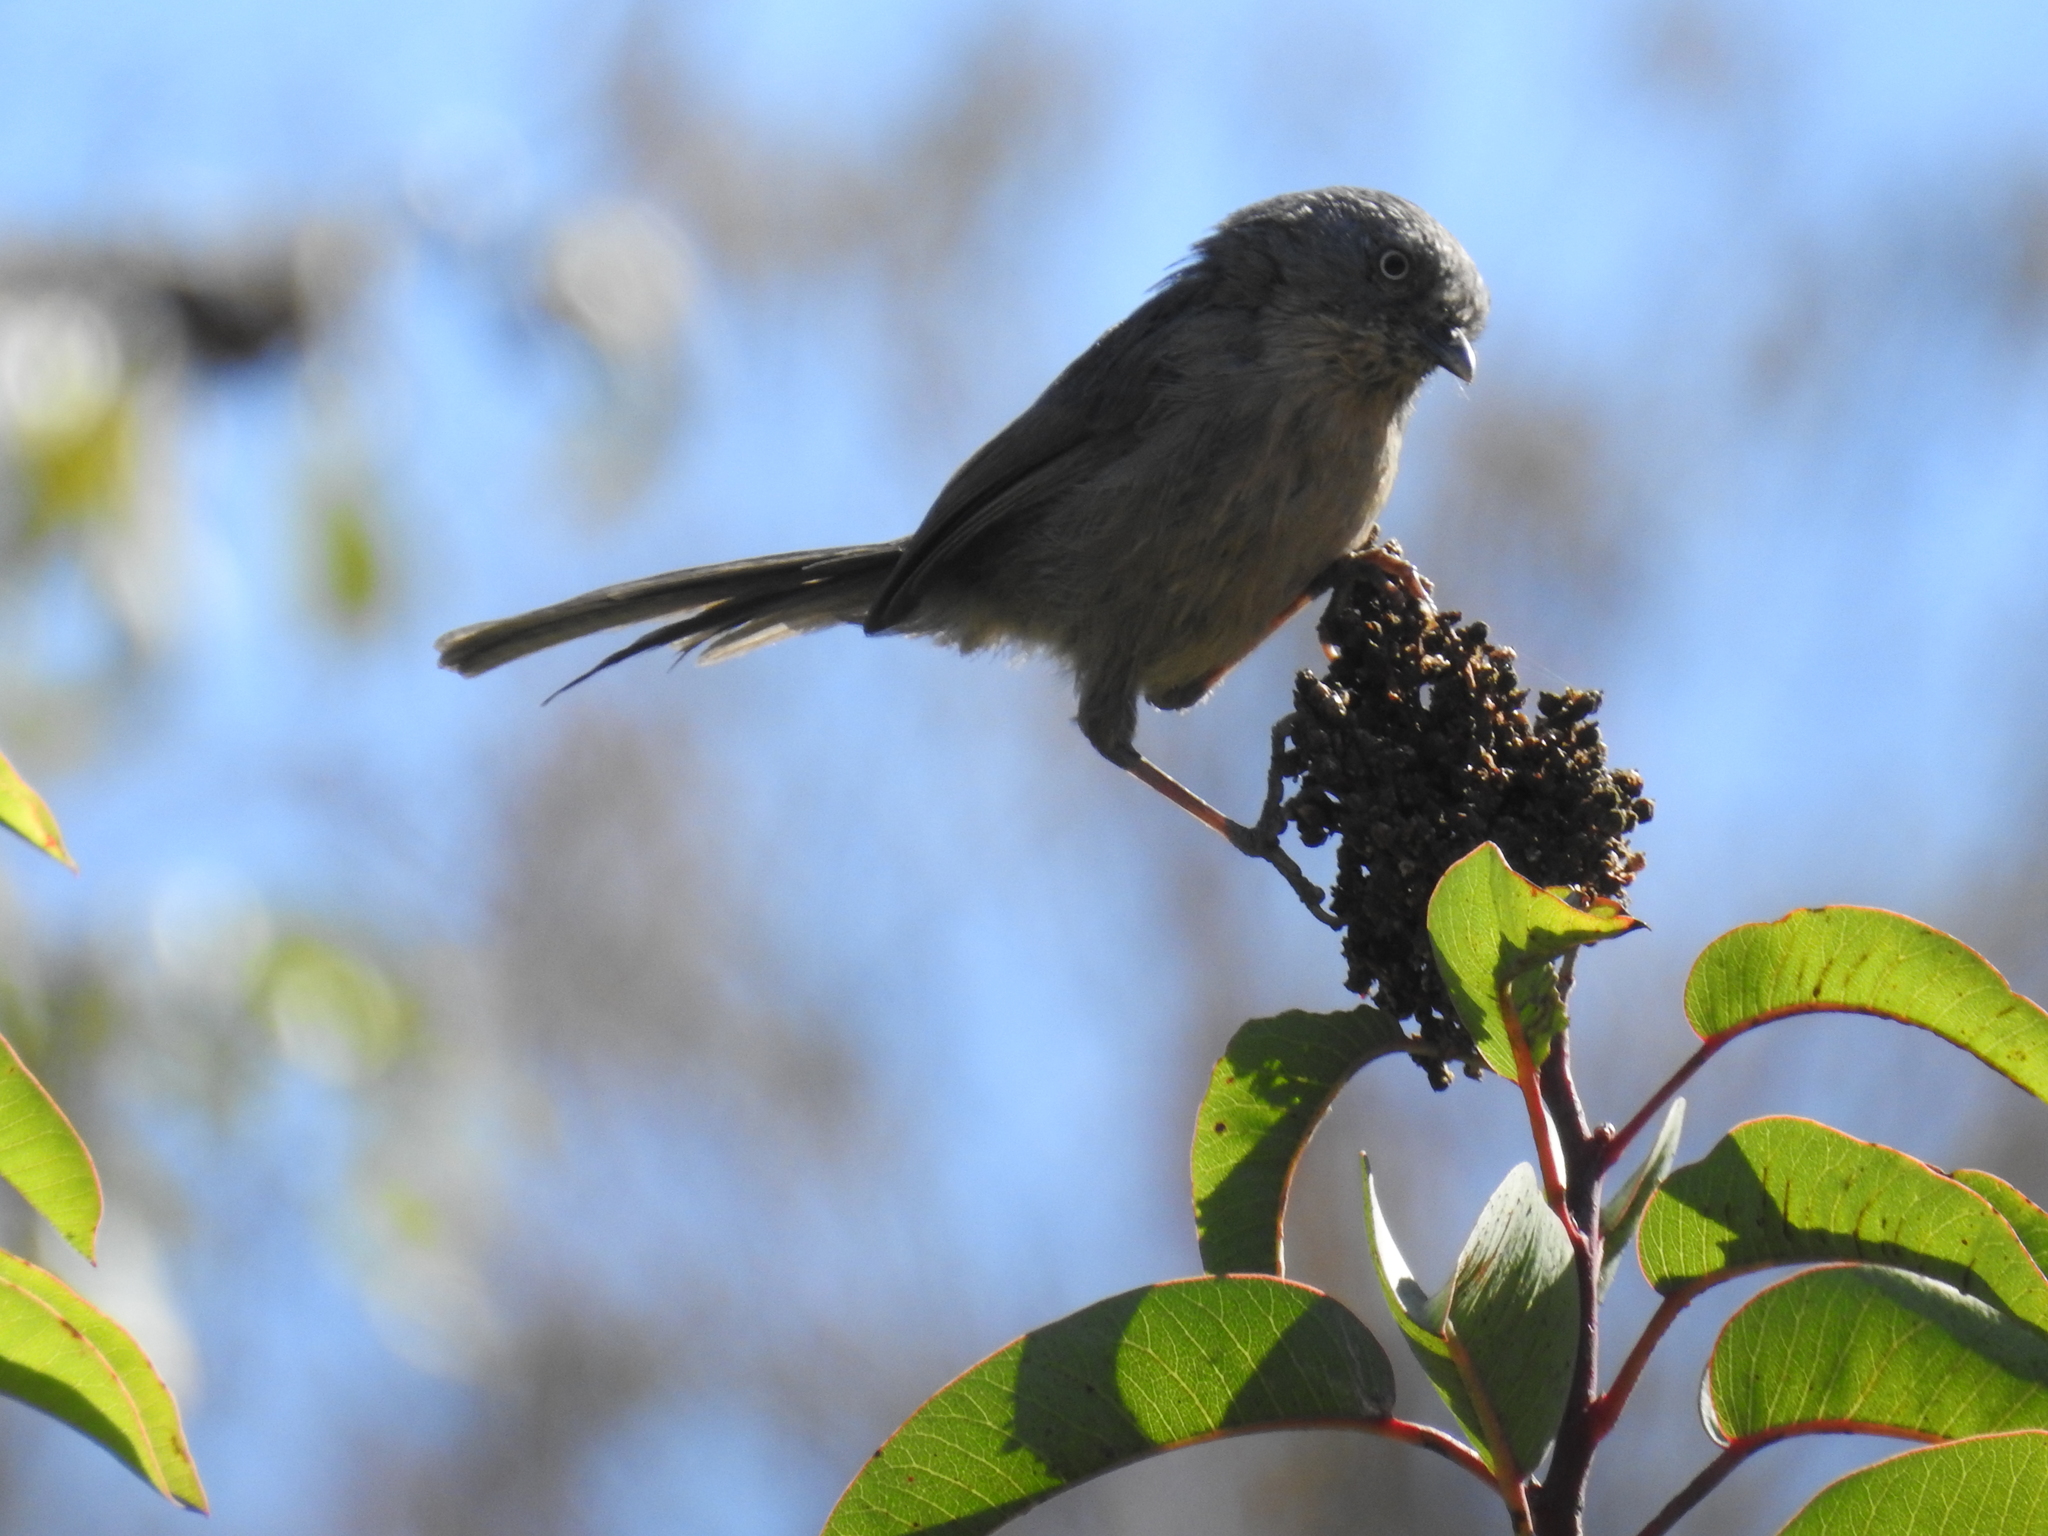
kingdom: Animalia
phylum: Chordata
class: Aves
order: Passeriformes
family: Sylviidae
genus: Chamaea
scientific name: Chamaea fasciata
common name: Wrentit
